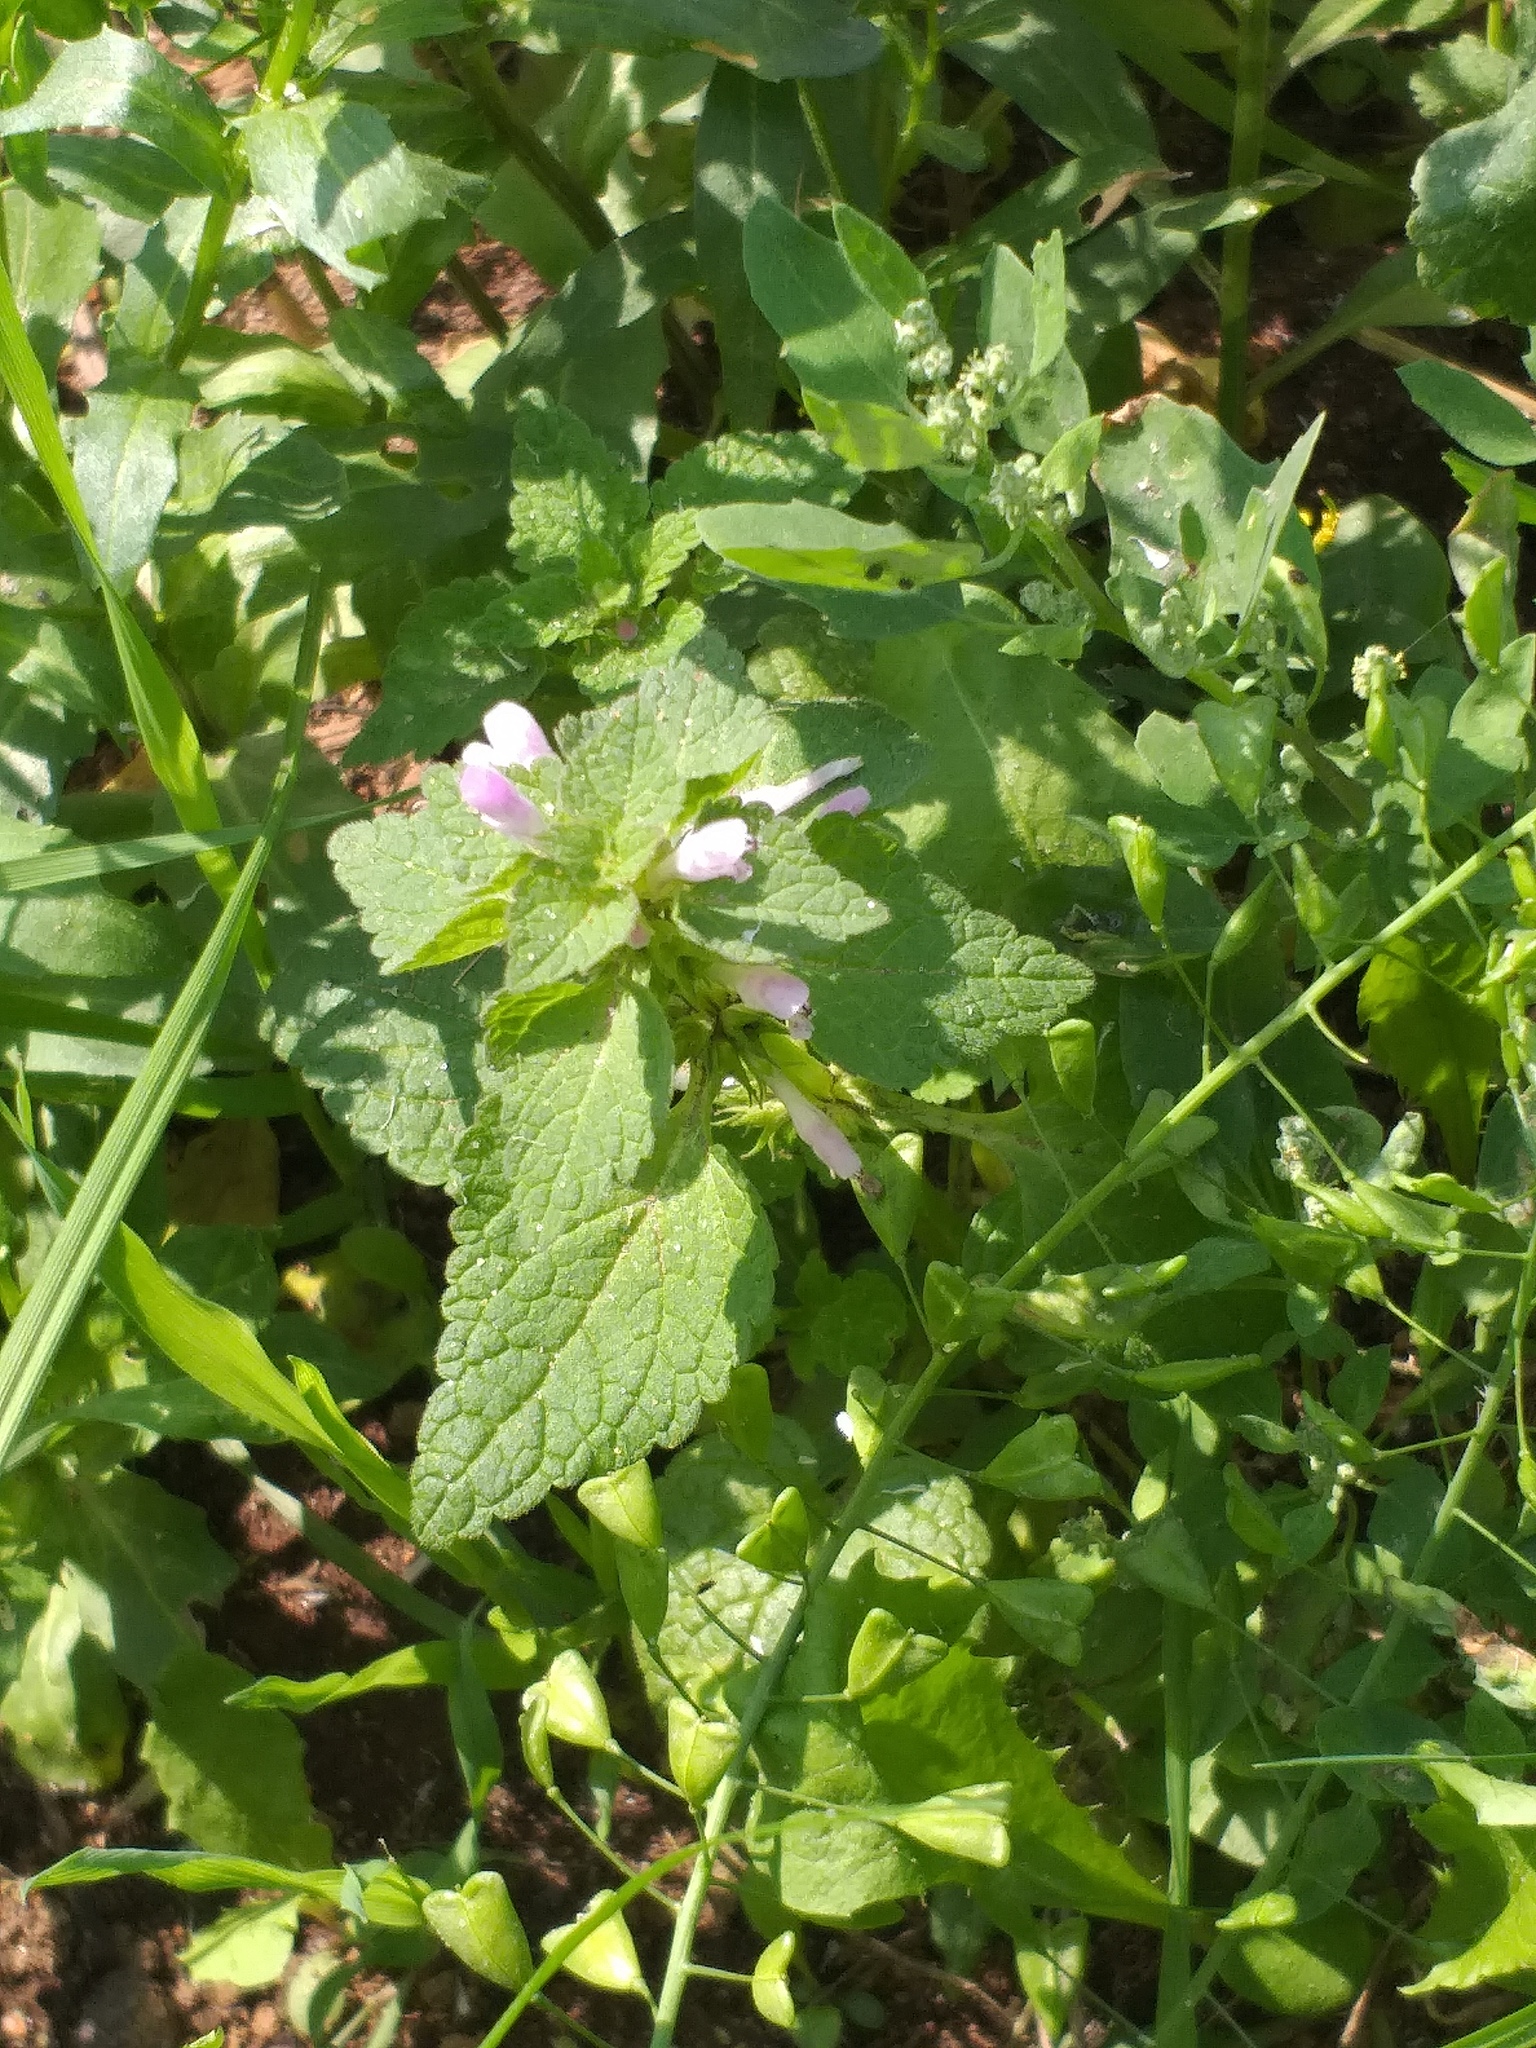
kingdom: Plantae
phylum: Tracheophyta
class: Magnoliopsida
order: Lamiales
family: Lamiaceae
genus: Lamium
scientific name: Lamium purpureum
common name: Red dead-nettle
